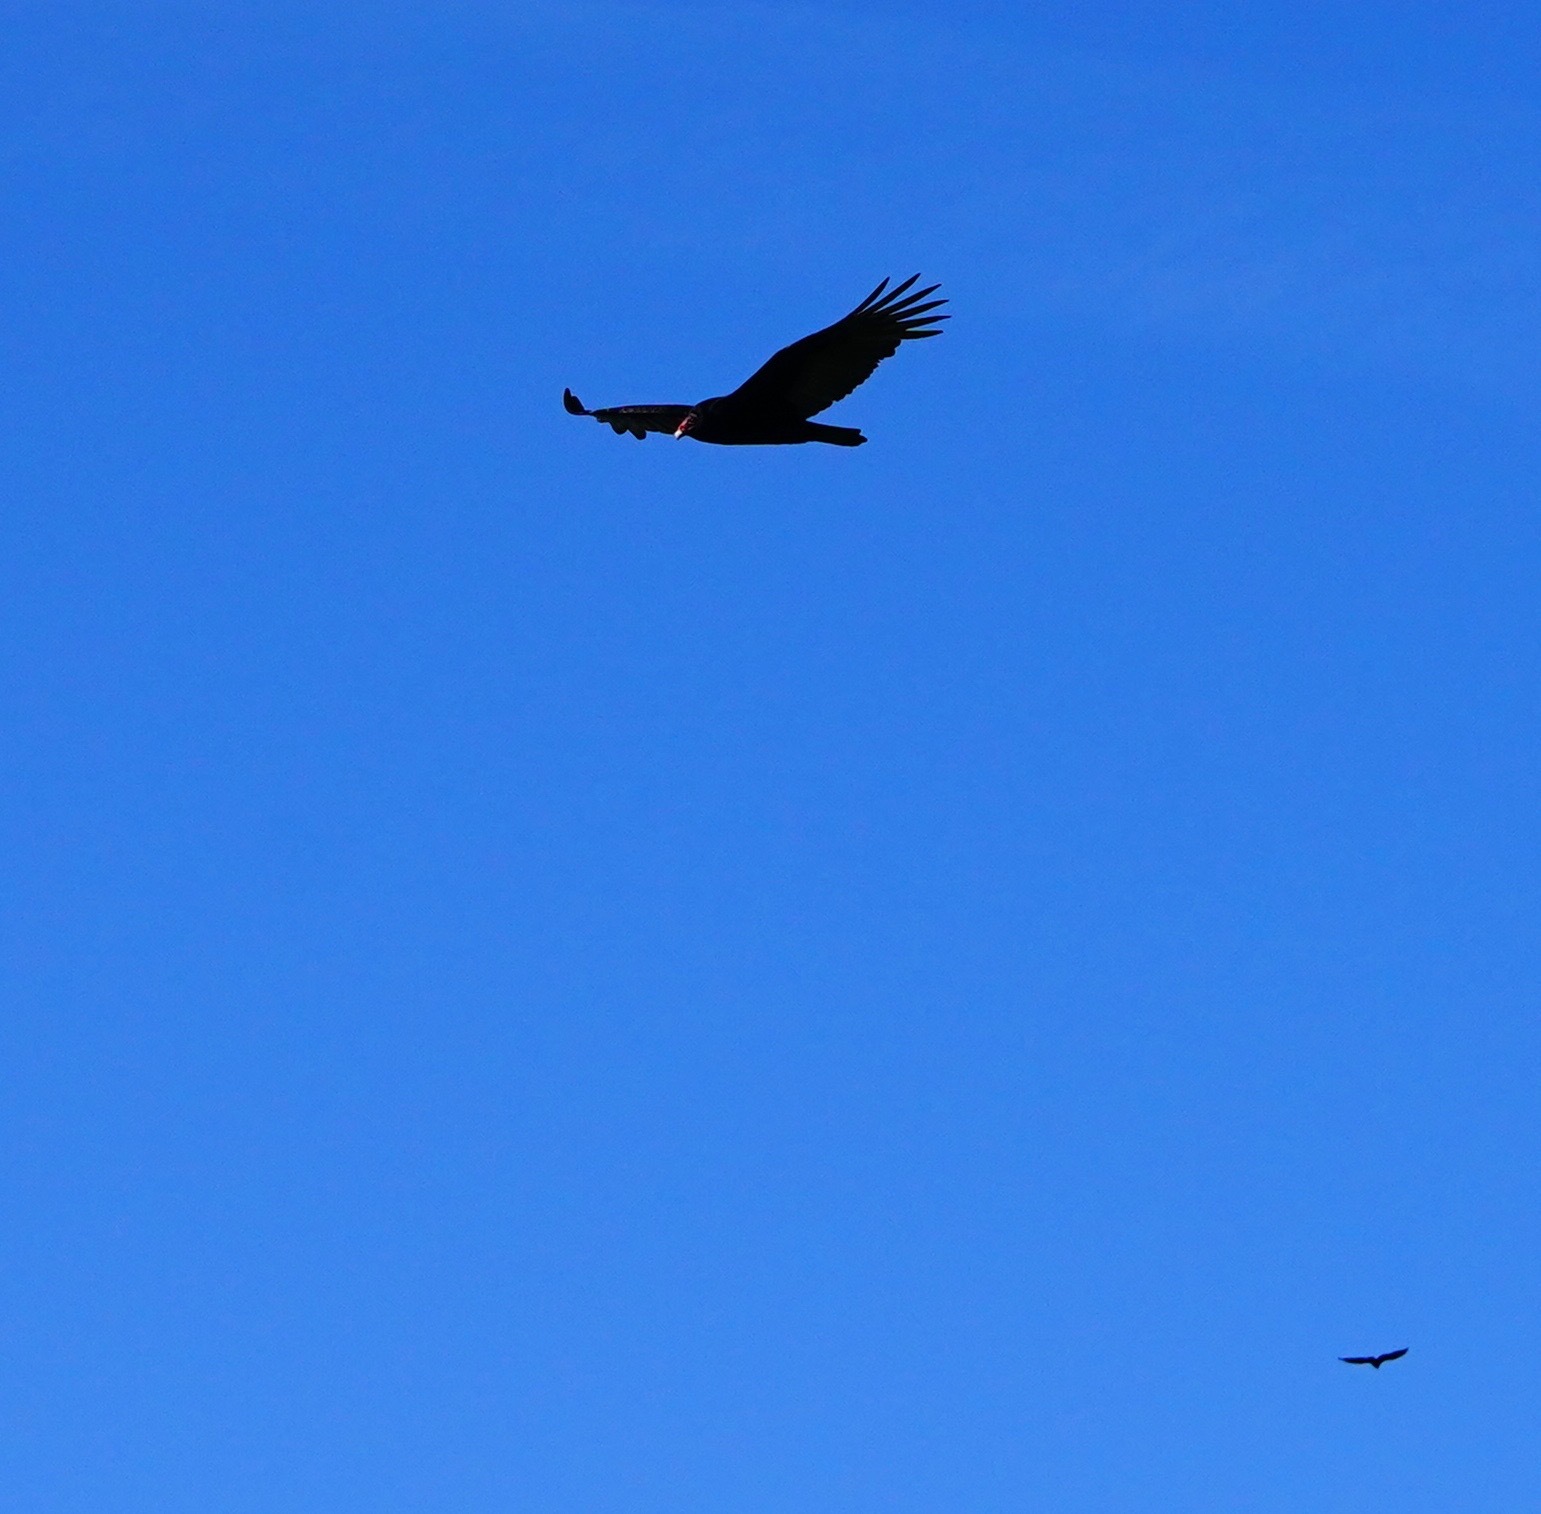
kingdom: Animalia
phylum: Chordata
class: Aves
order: Accipitriformes
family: Cathartidae
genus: Cathartes
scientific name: Cathartes aura
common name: Turkey vulture
